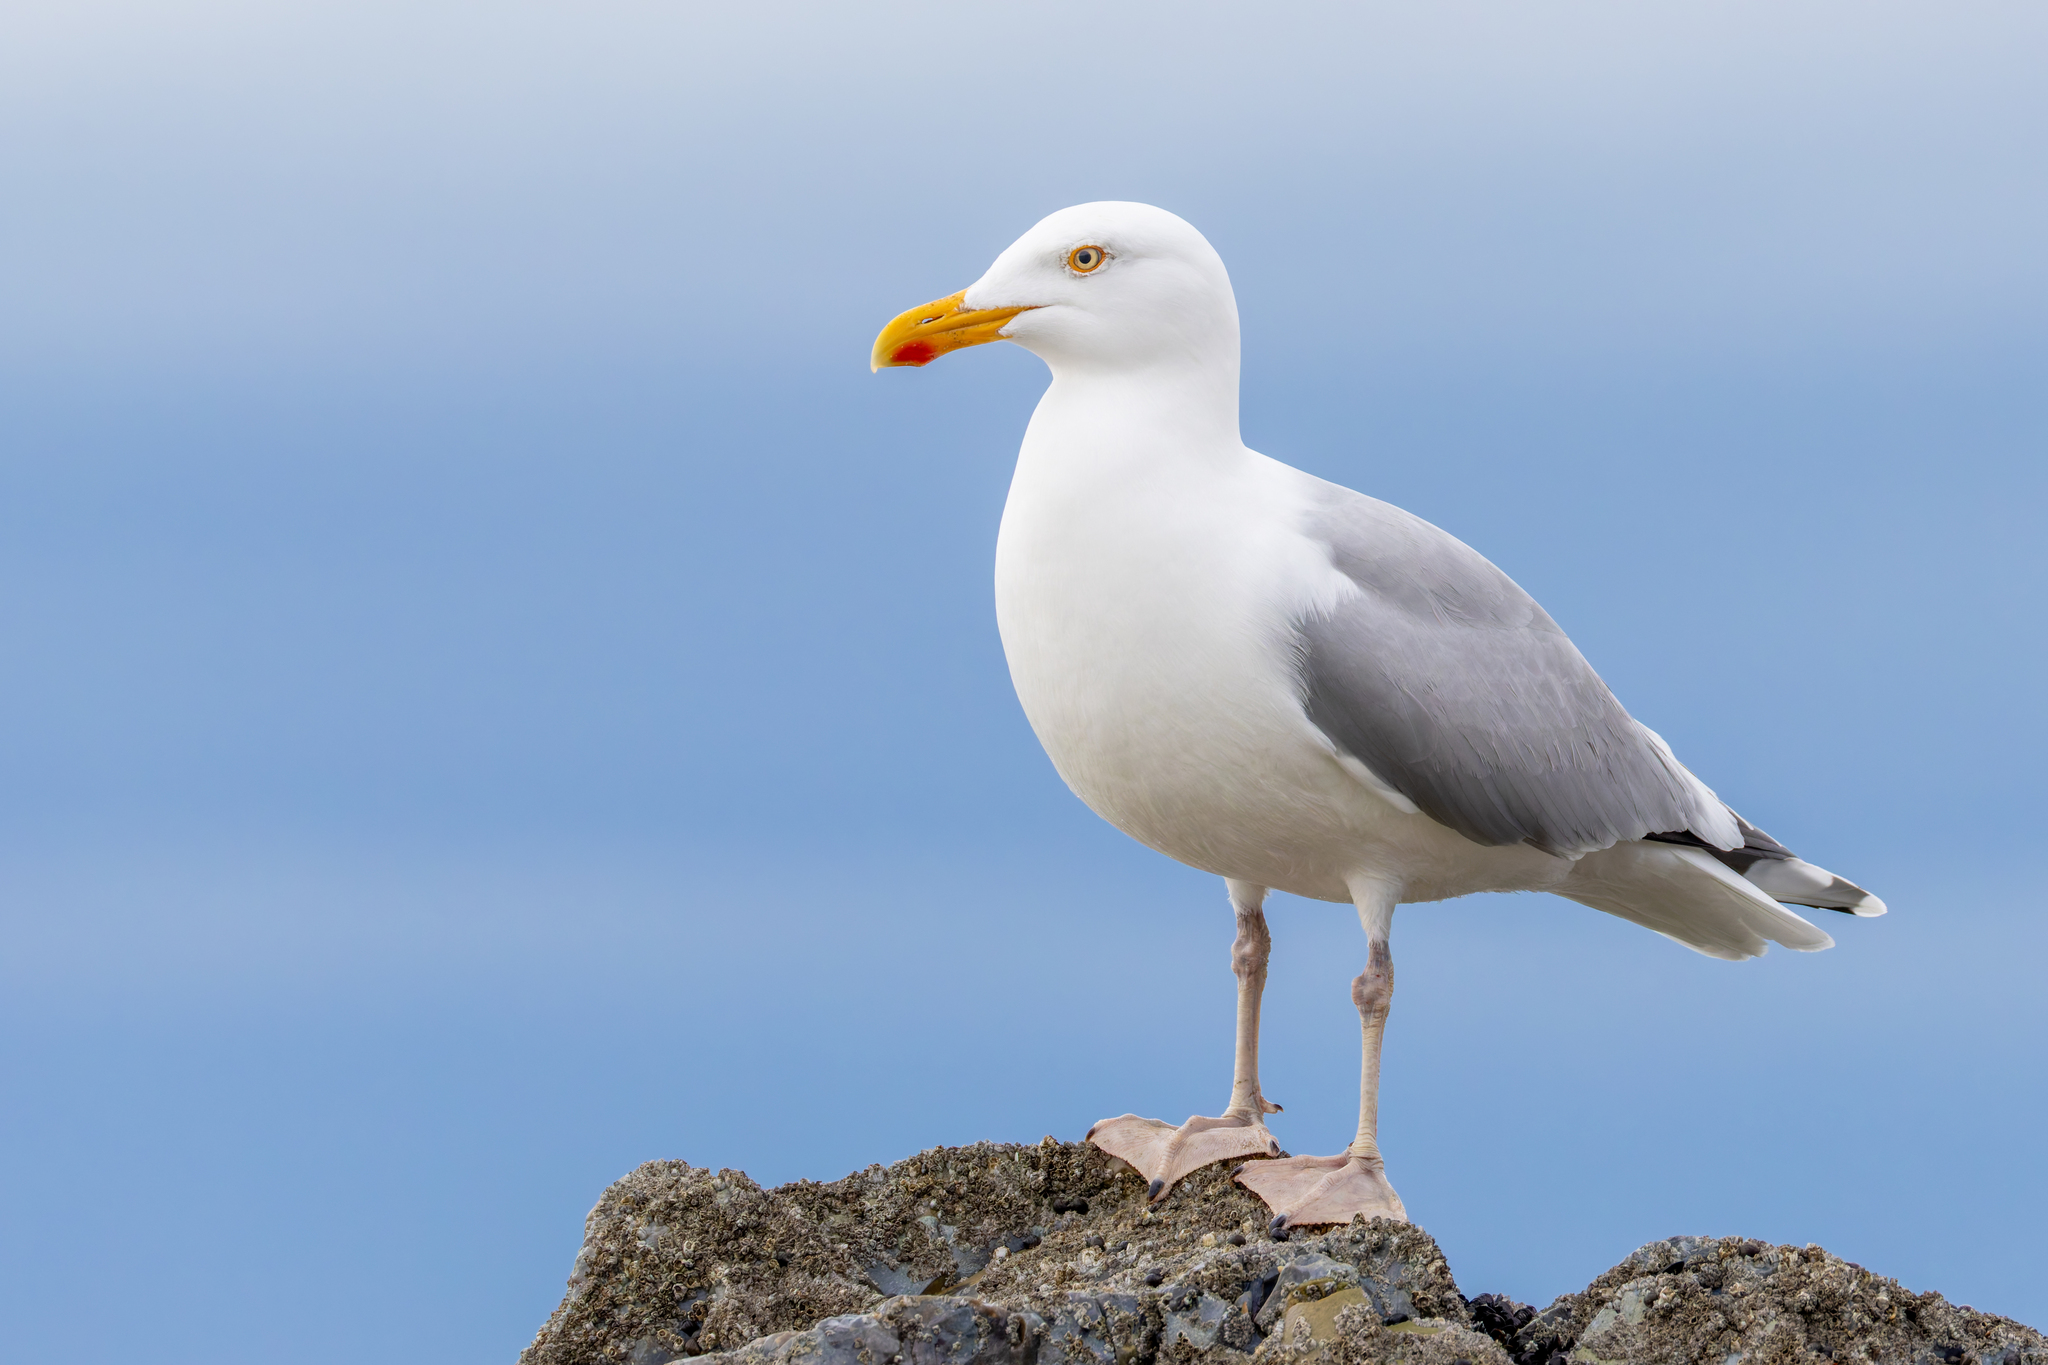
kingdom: Animalia
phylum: Chordata
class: Aves
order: Charadriiformes
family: Laridae
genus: Larus
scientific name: Larus argentatus
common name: Herring gull
